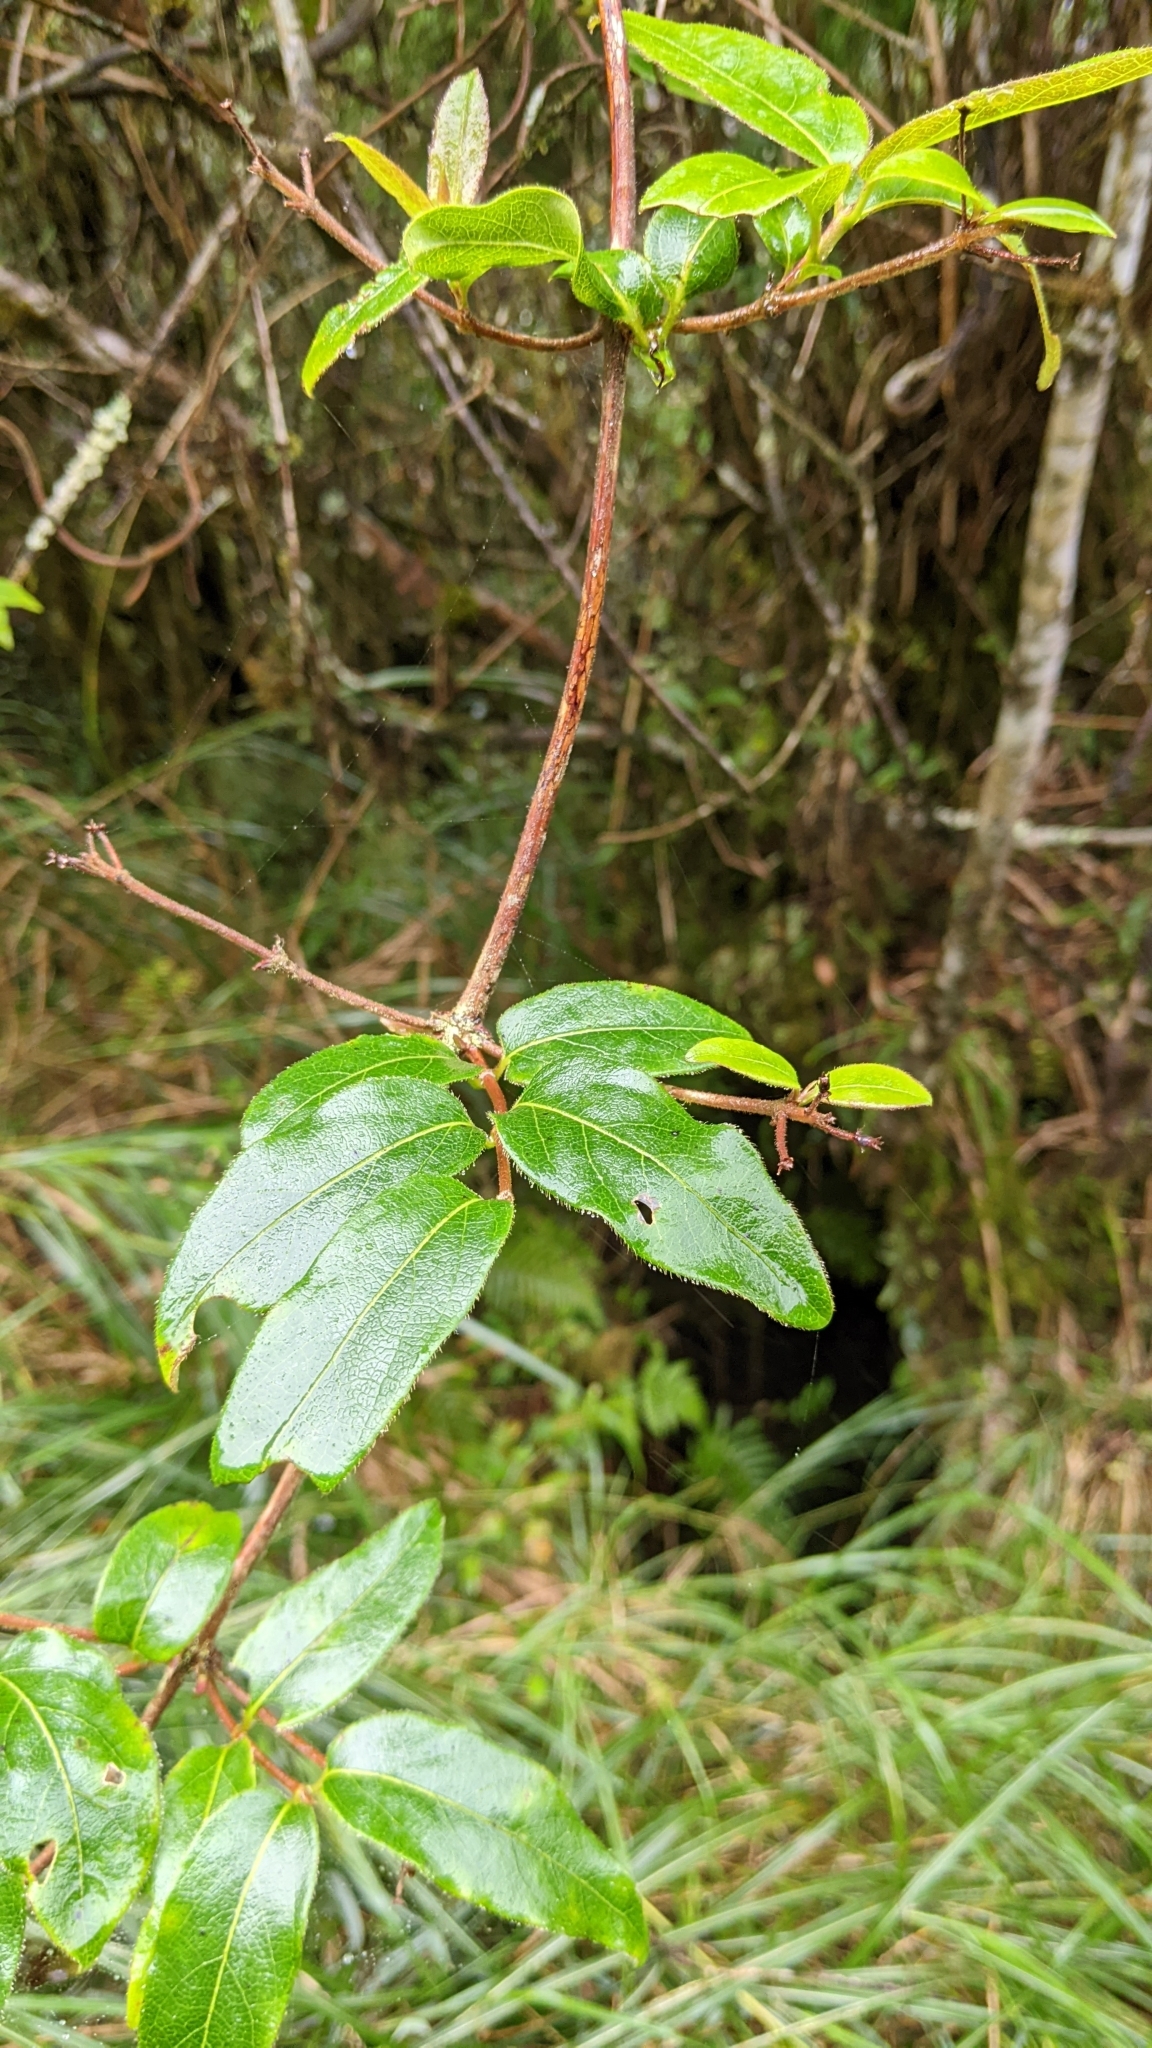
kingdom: Plantae
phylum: Tracheophyta
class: Magnoliopsida
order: Dipsacales
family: Caprifoliaceae
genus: Lonicera
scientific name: Lonicera acuminata
